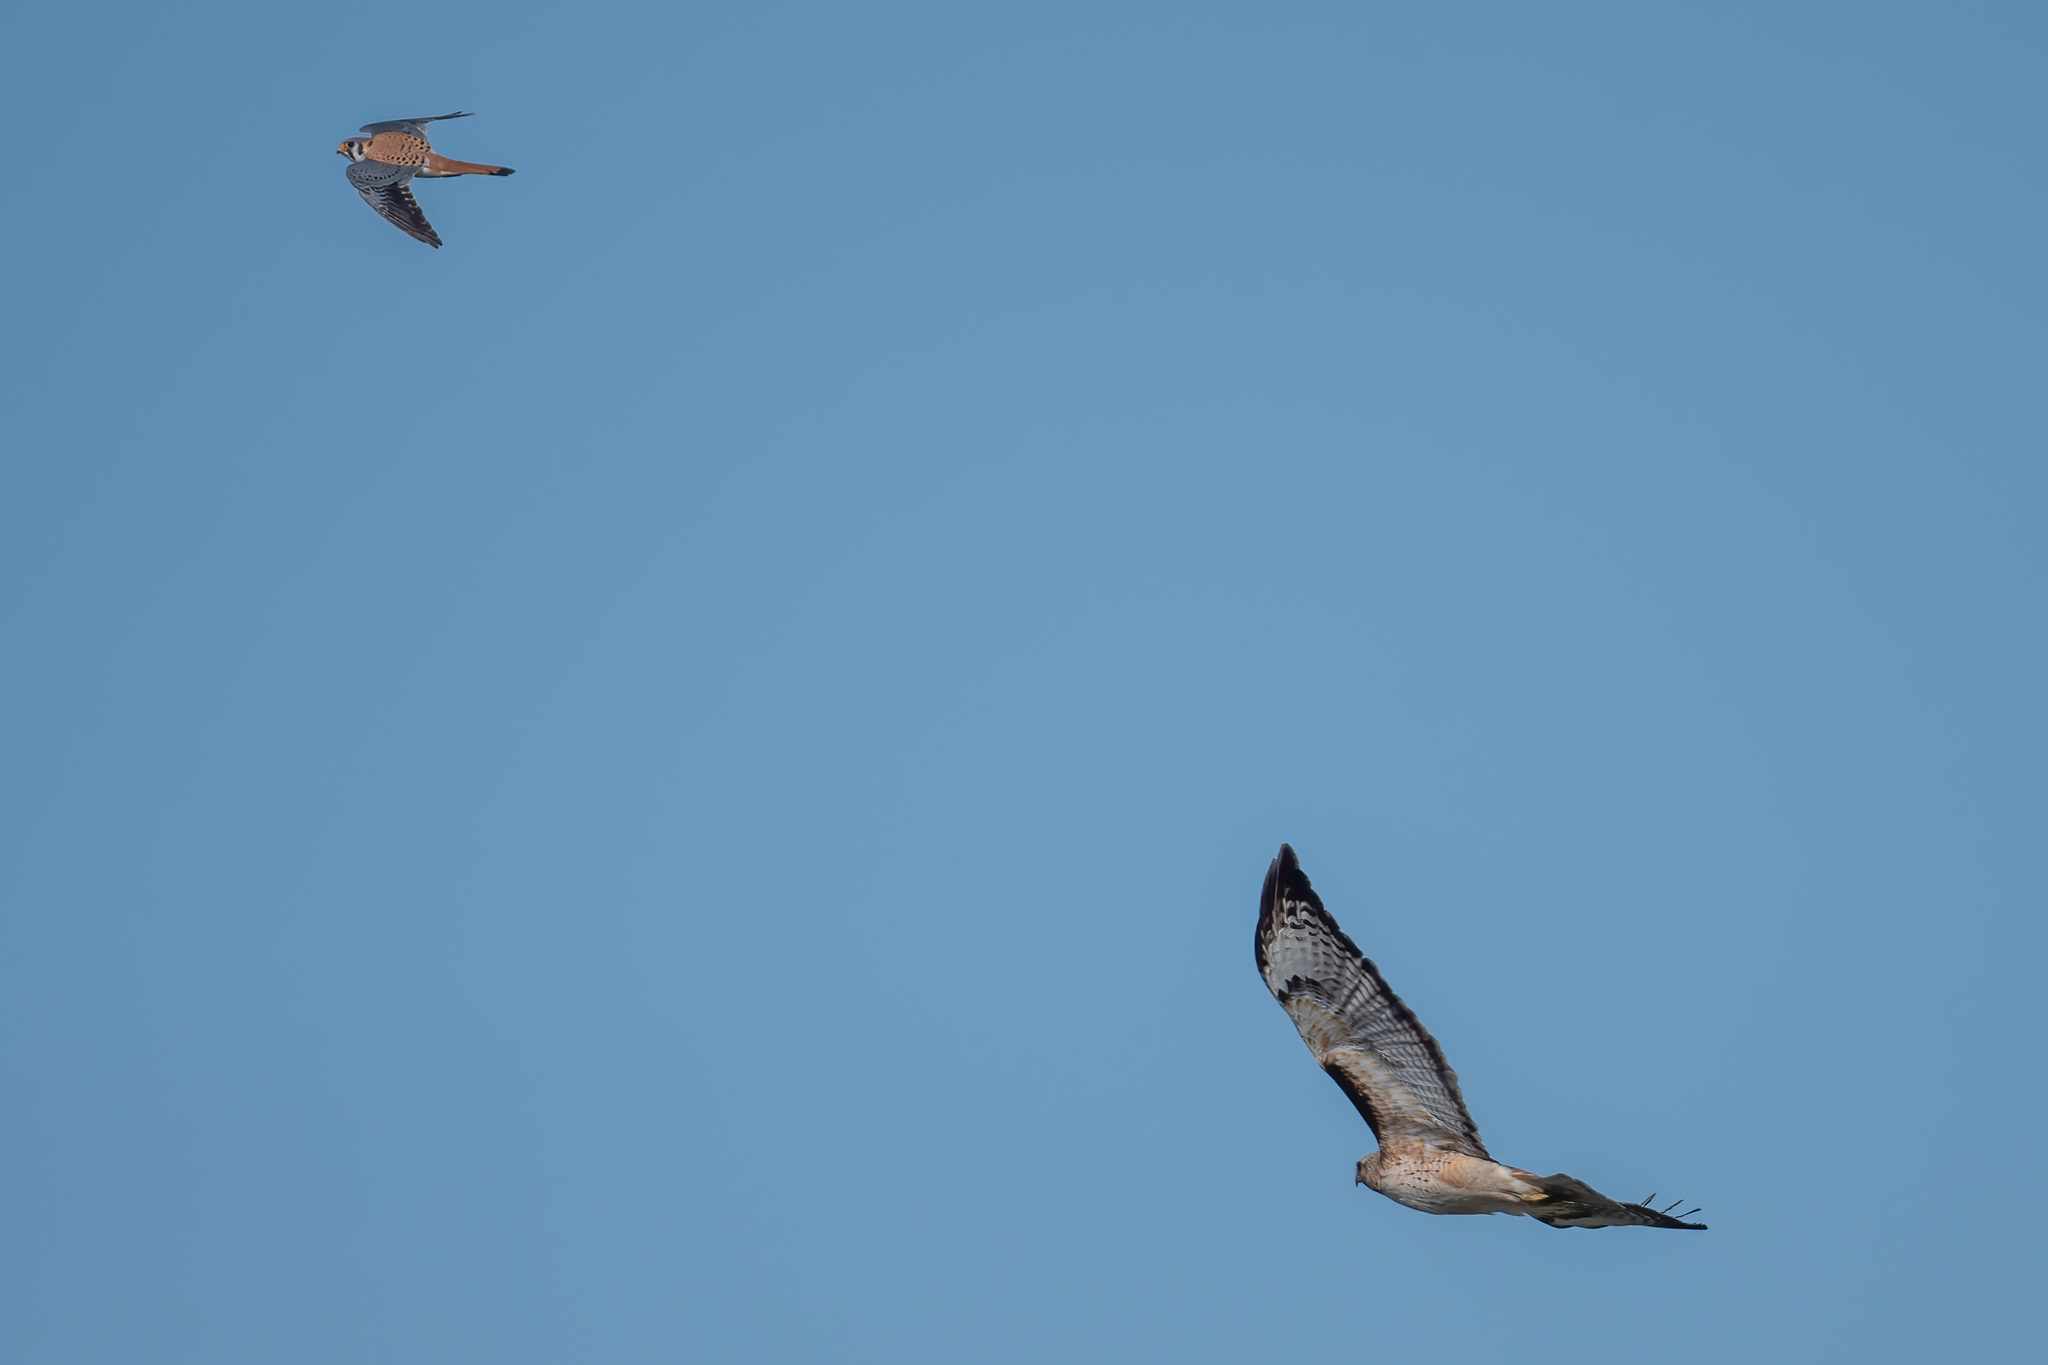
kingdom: Animalia
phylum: Chordata
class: Aves
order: Accipitriformes
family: Accipitridae
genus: Buteo
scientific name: Buteo jamaicensis
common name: Red-tailed hawk
